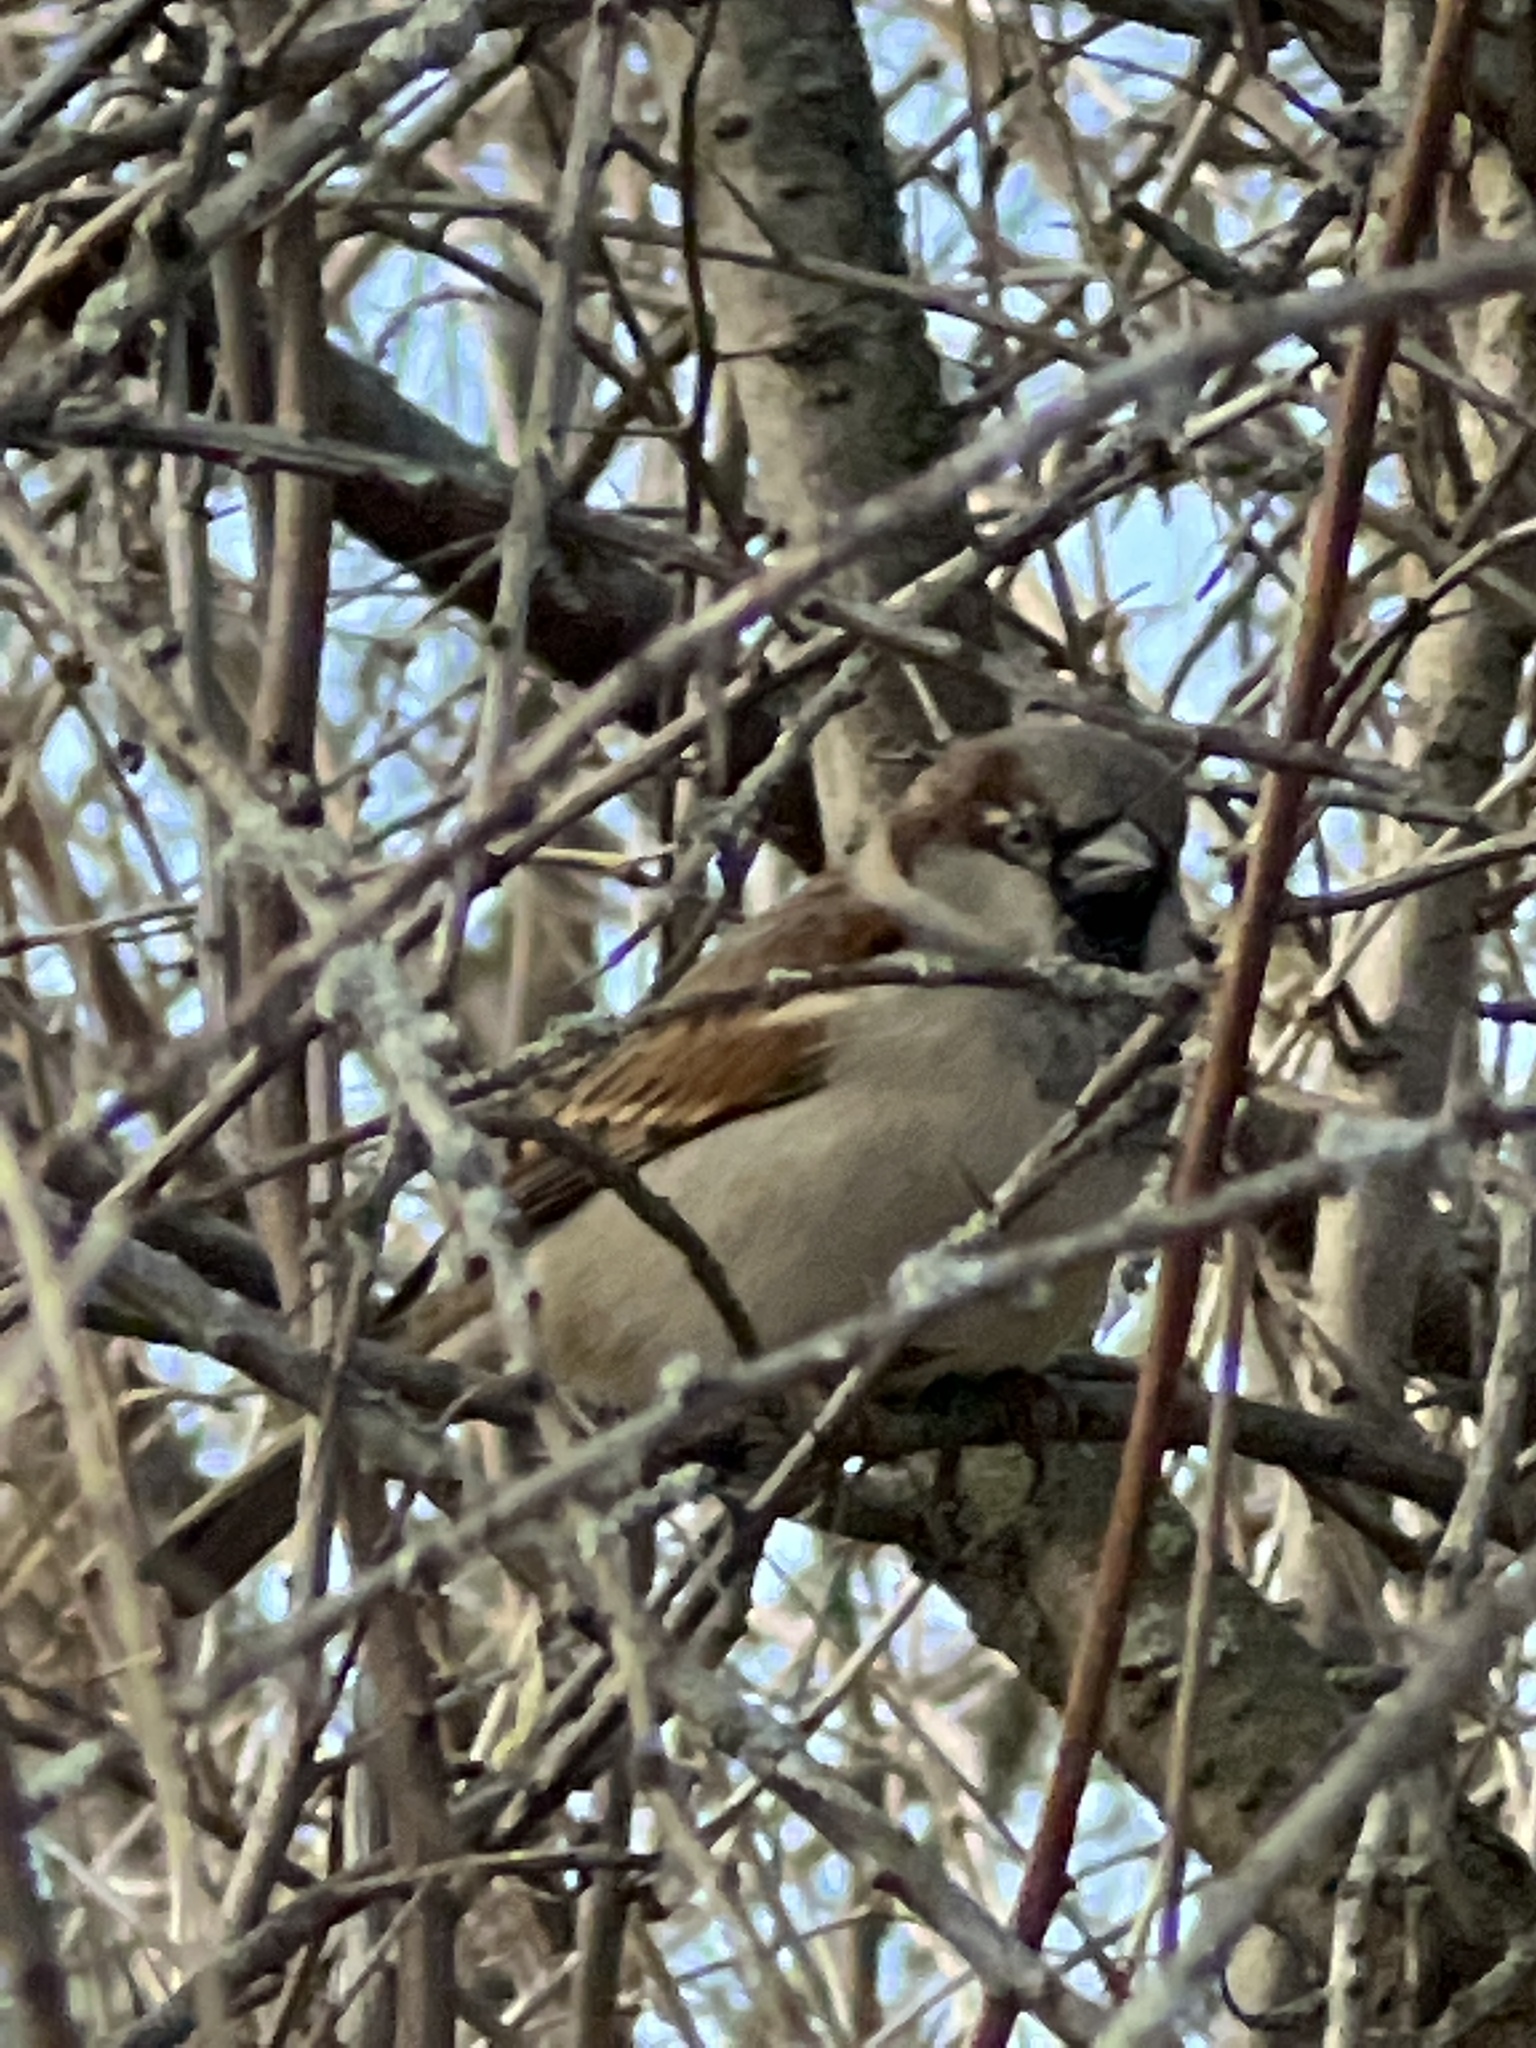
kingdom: Animalia
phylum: Chordata
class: Aves
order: Passeriformes
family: Passeridae
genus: Passer
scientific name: Passer domesticus
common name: House sparrow
